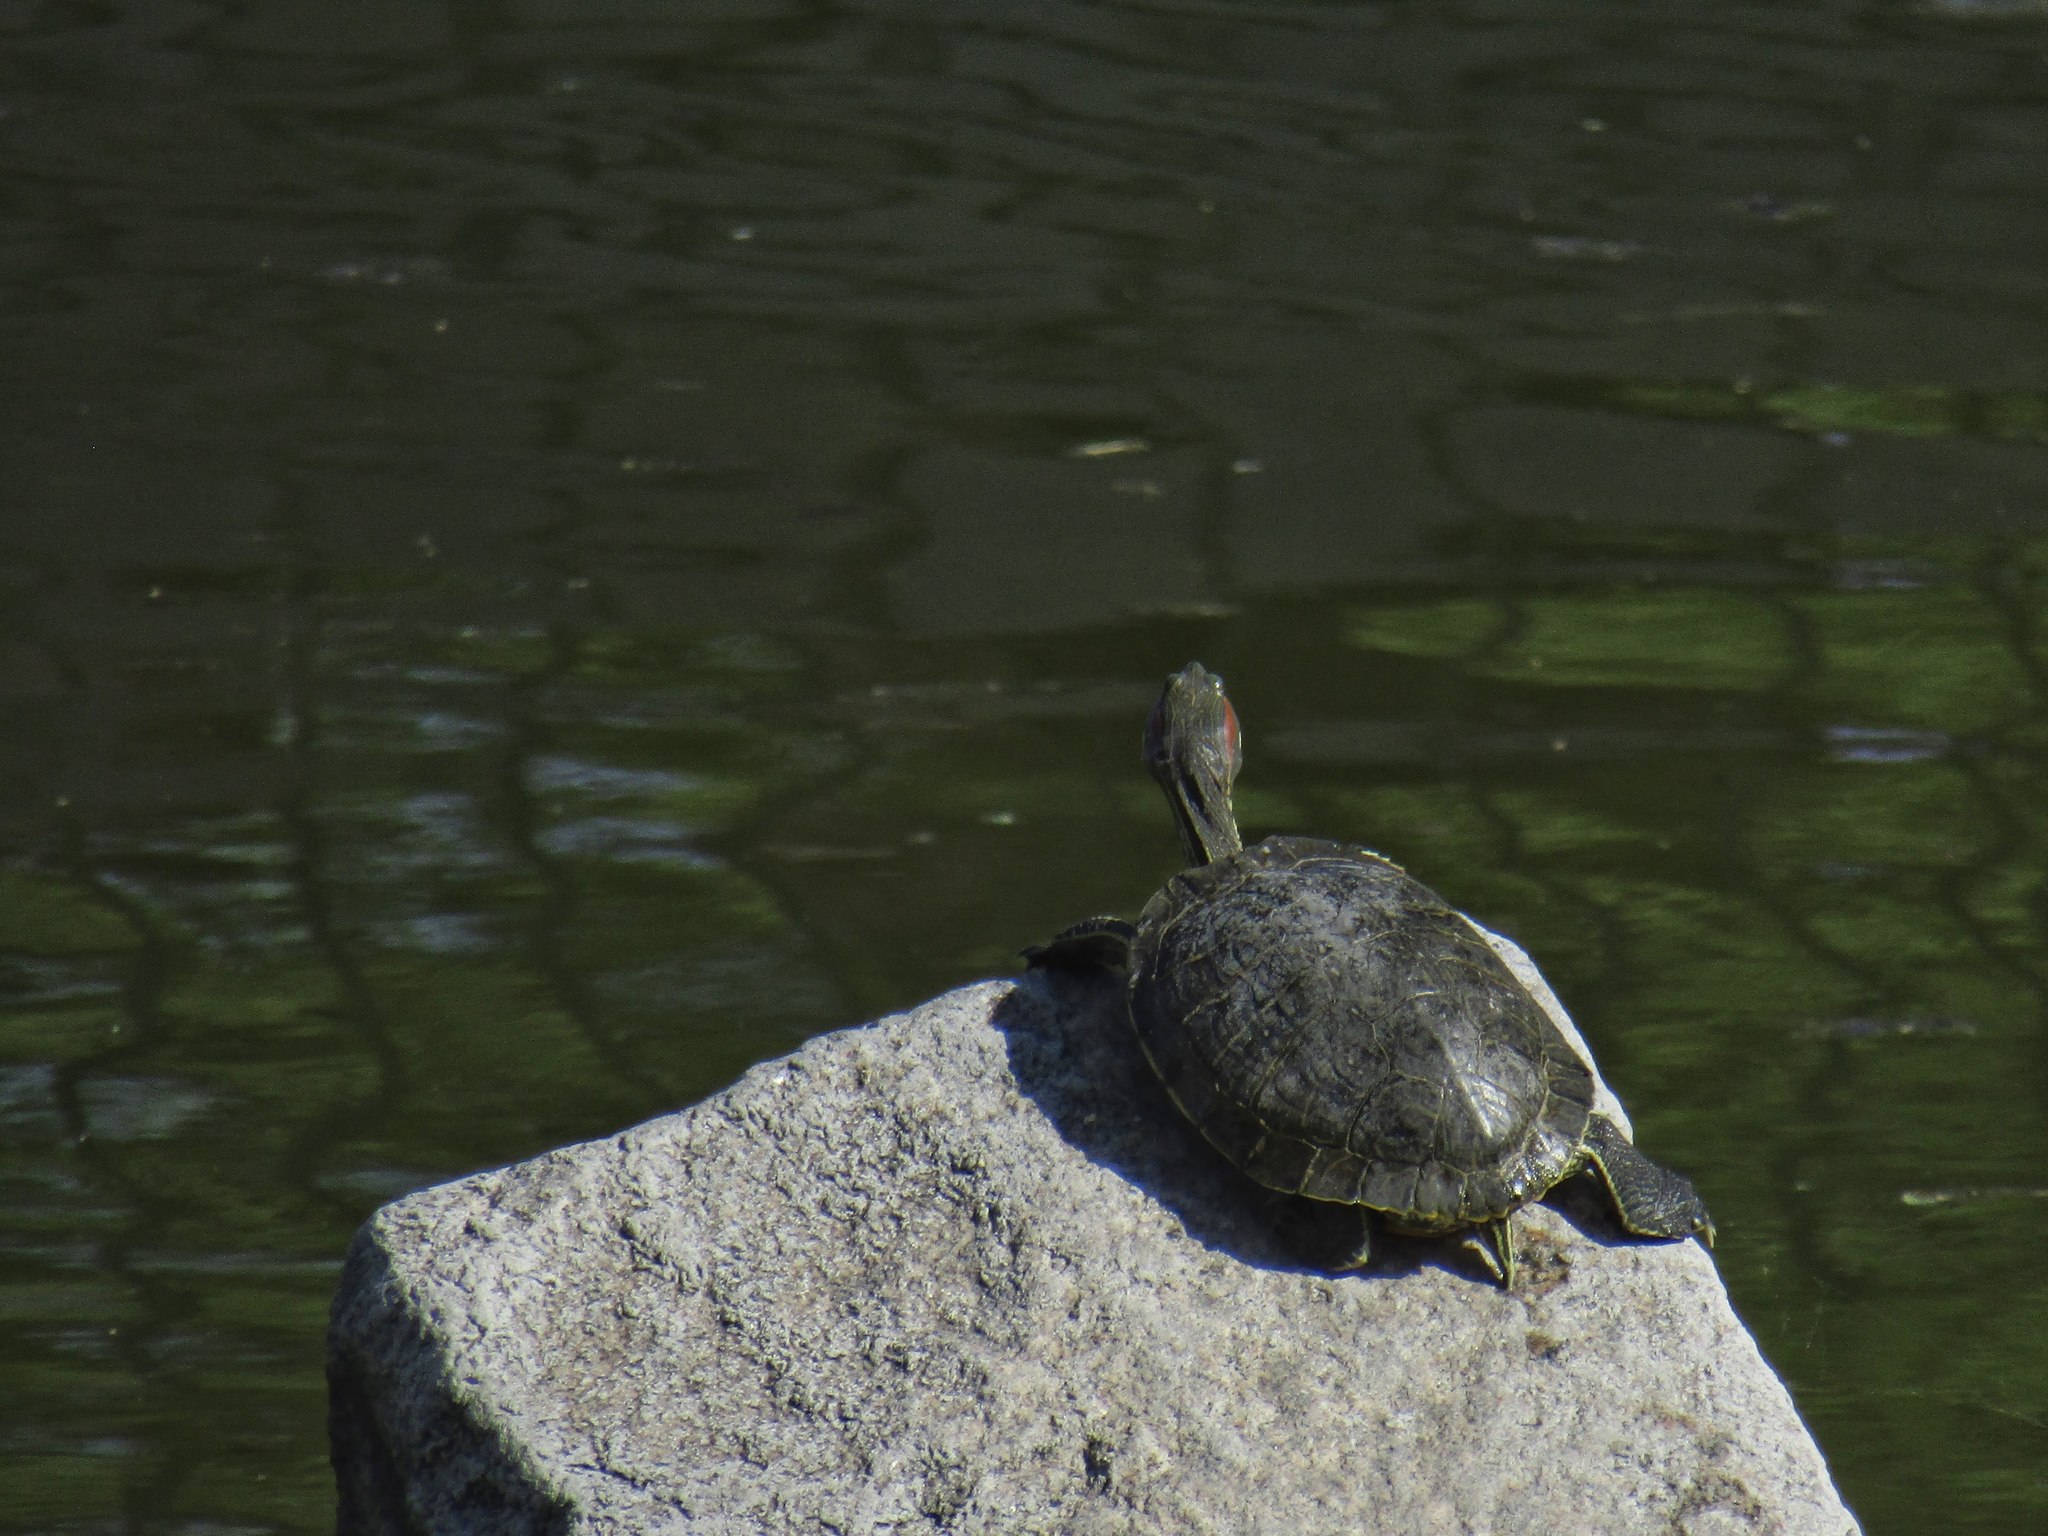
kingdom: Animalia
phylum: Chordata
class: Testudines
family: Emydidae
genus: Trachemys
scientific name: Trachemys scripta
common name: Slider
